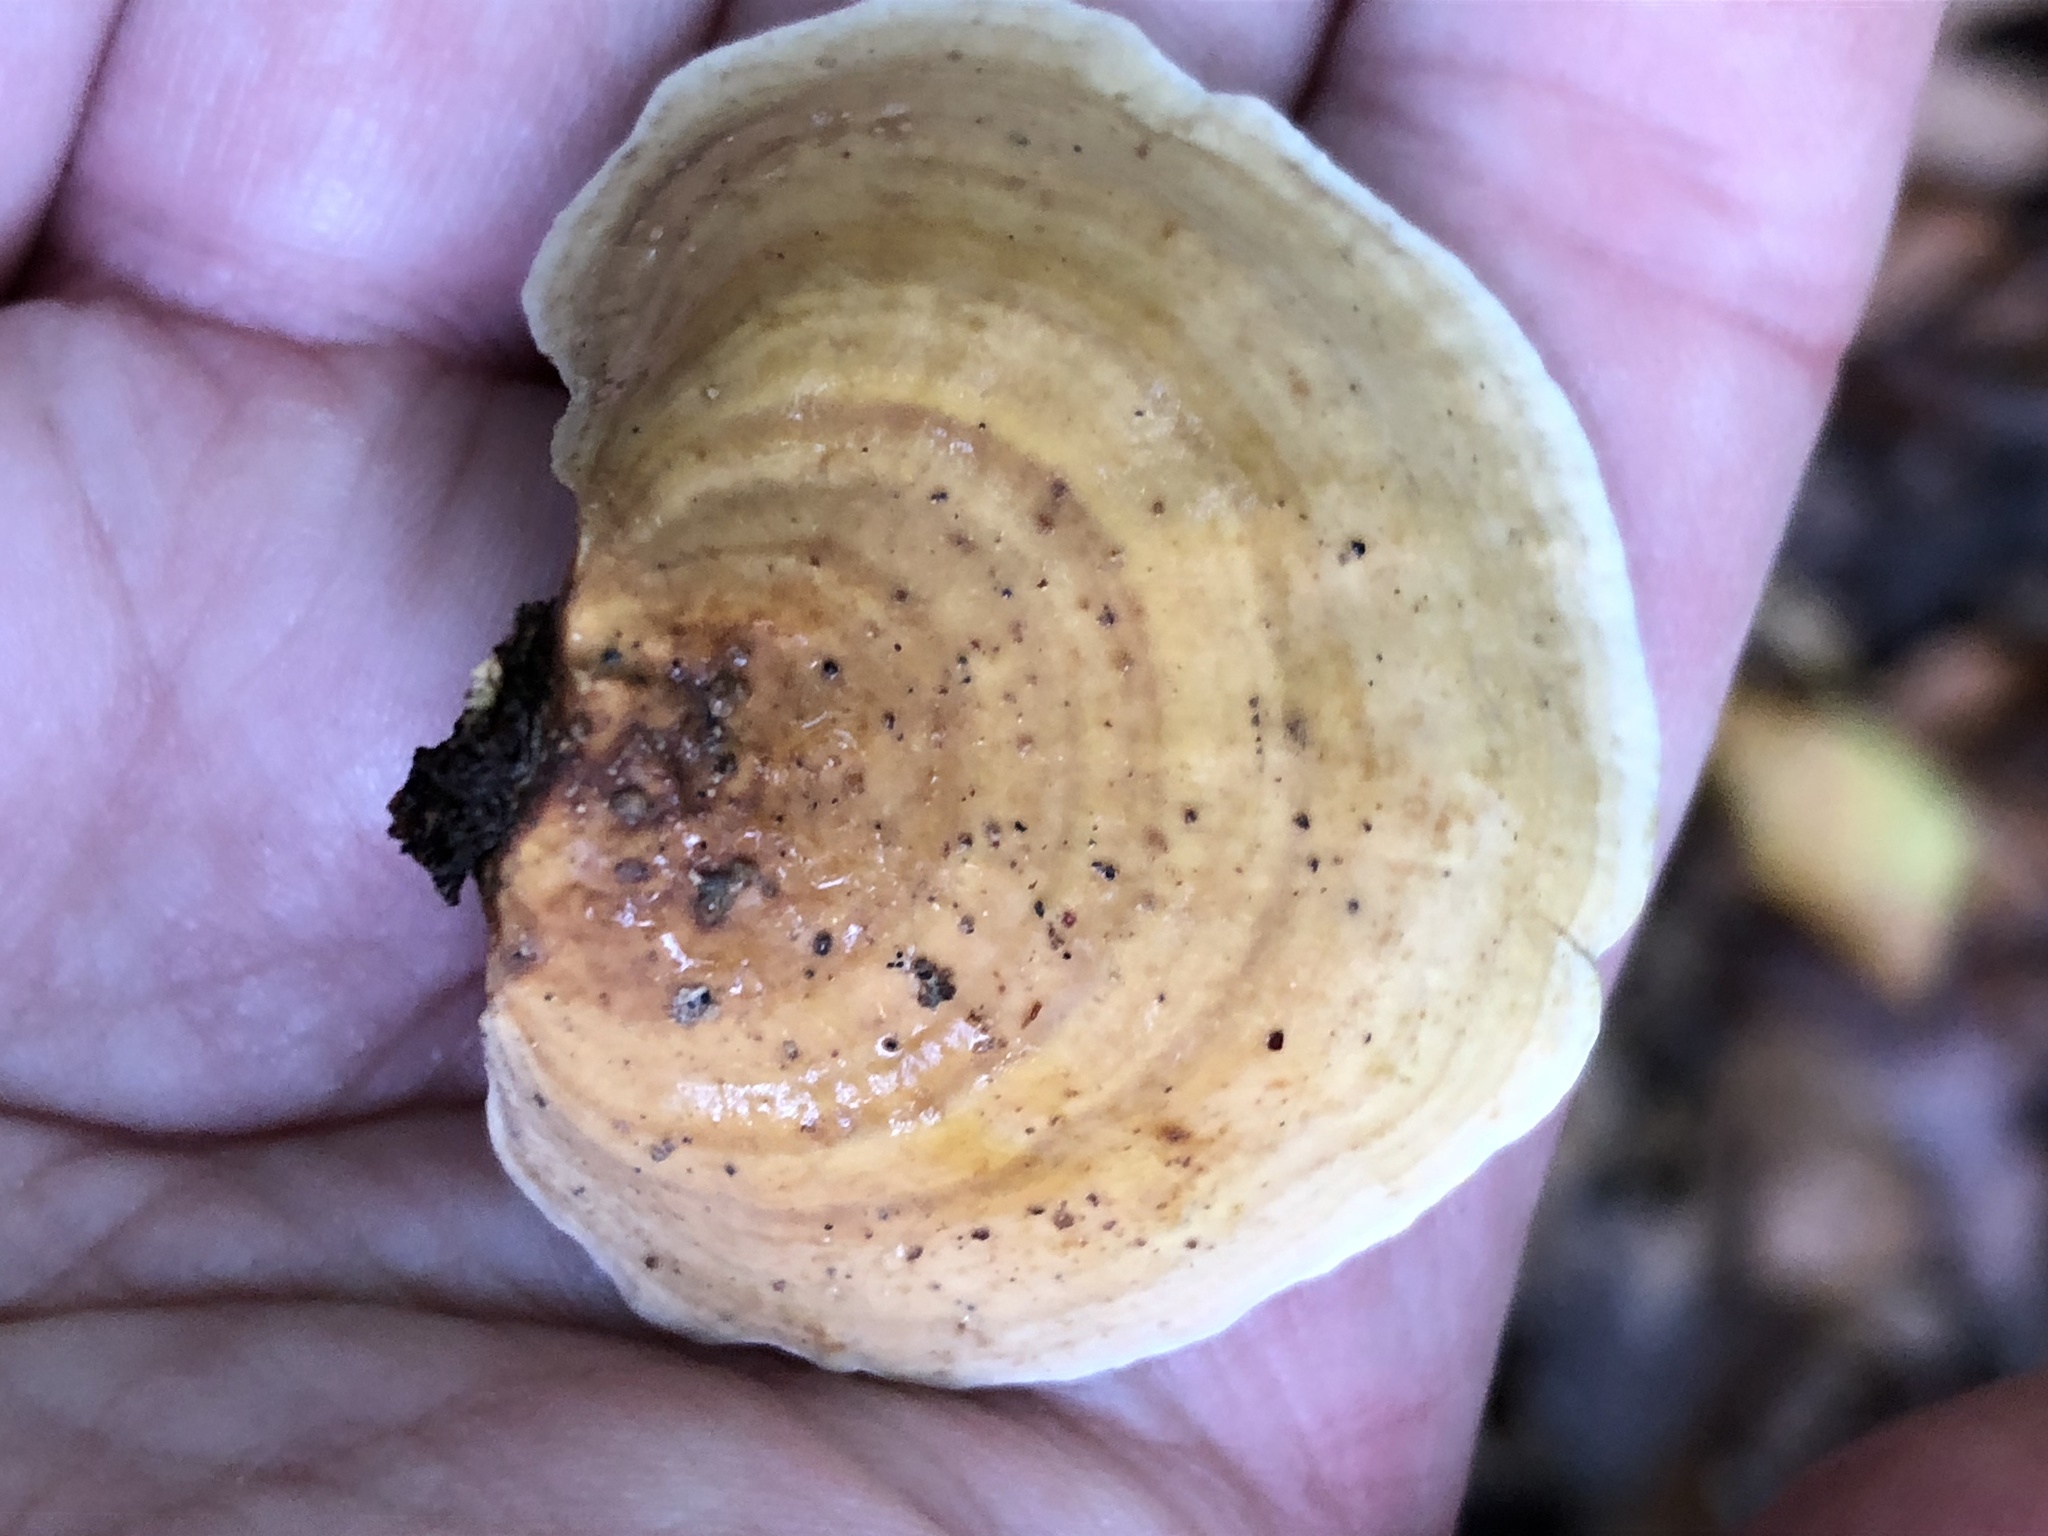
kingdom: Fungi
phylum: Basidiomycota
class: Agaricomycetes
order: Russulales
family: Stereaceae
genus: Stereum
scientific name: Stereum hirsutum
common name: Hairy curtain crust
